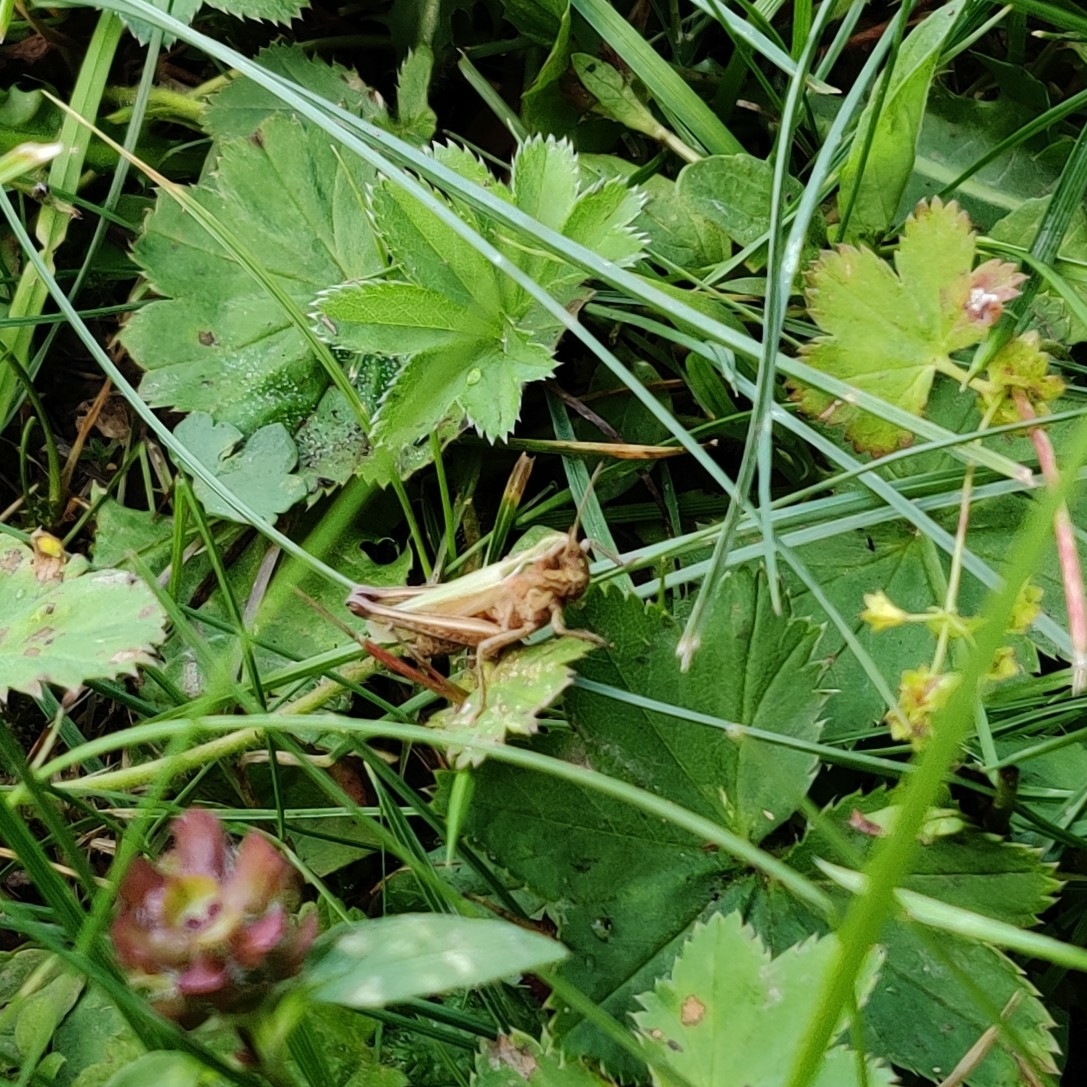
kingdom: Animalia
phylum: Arthropoda
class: Insecta
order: Orthoptera
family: Acrididae
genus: Omocestus
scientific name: Omocestus viridulus
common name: Common green grasshopper
